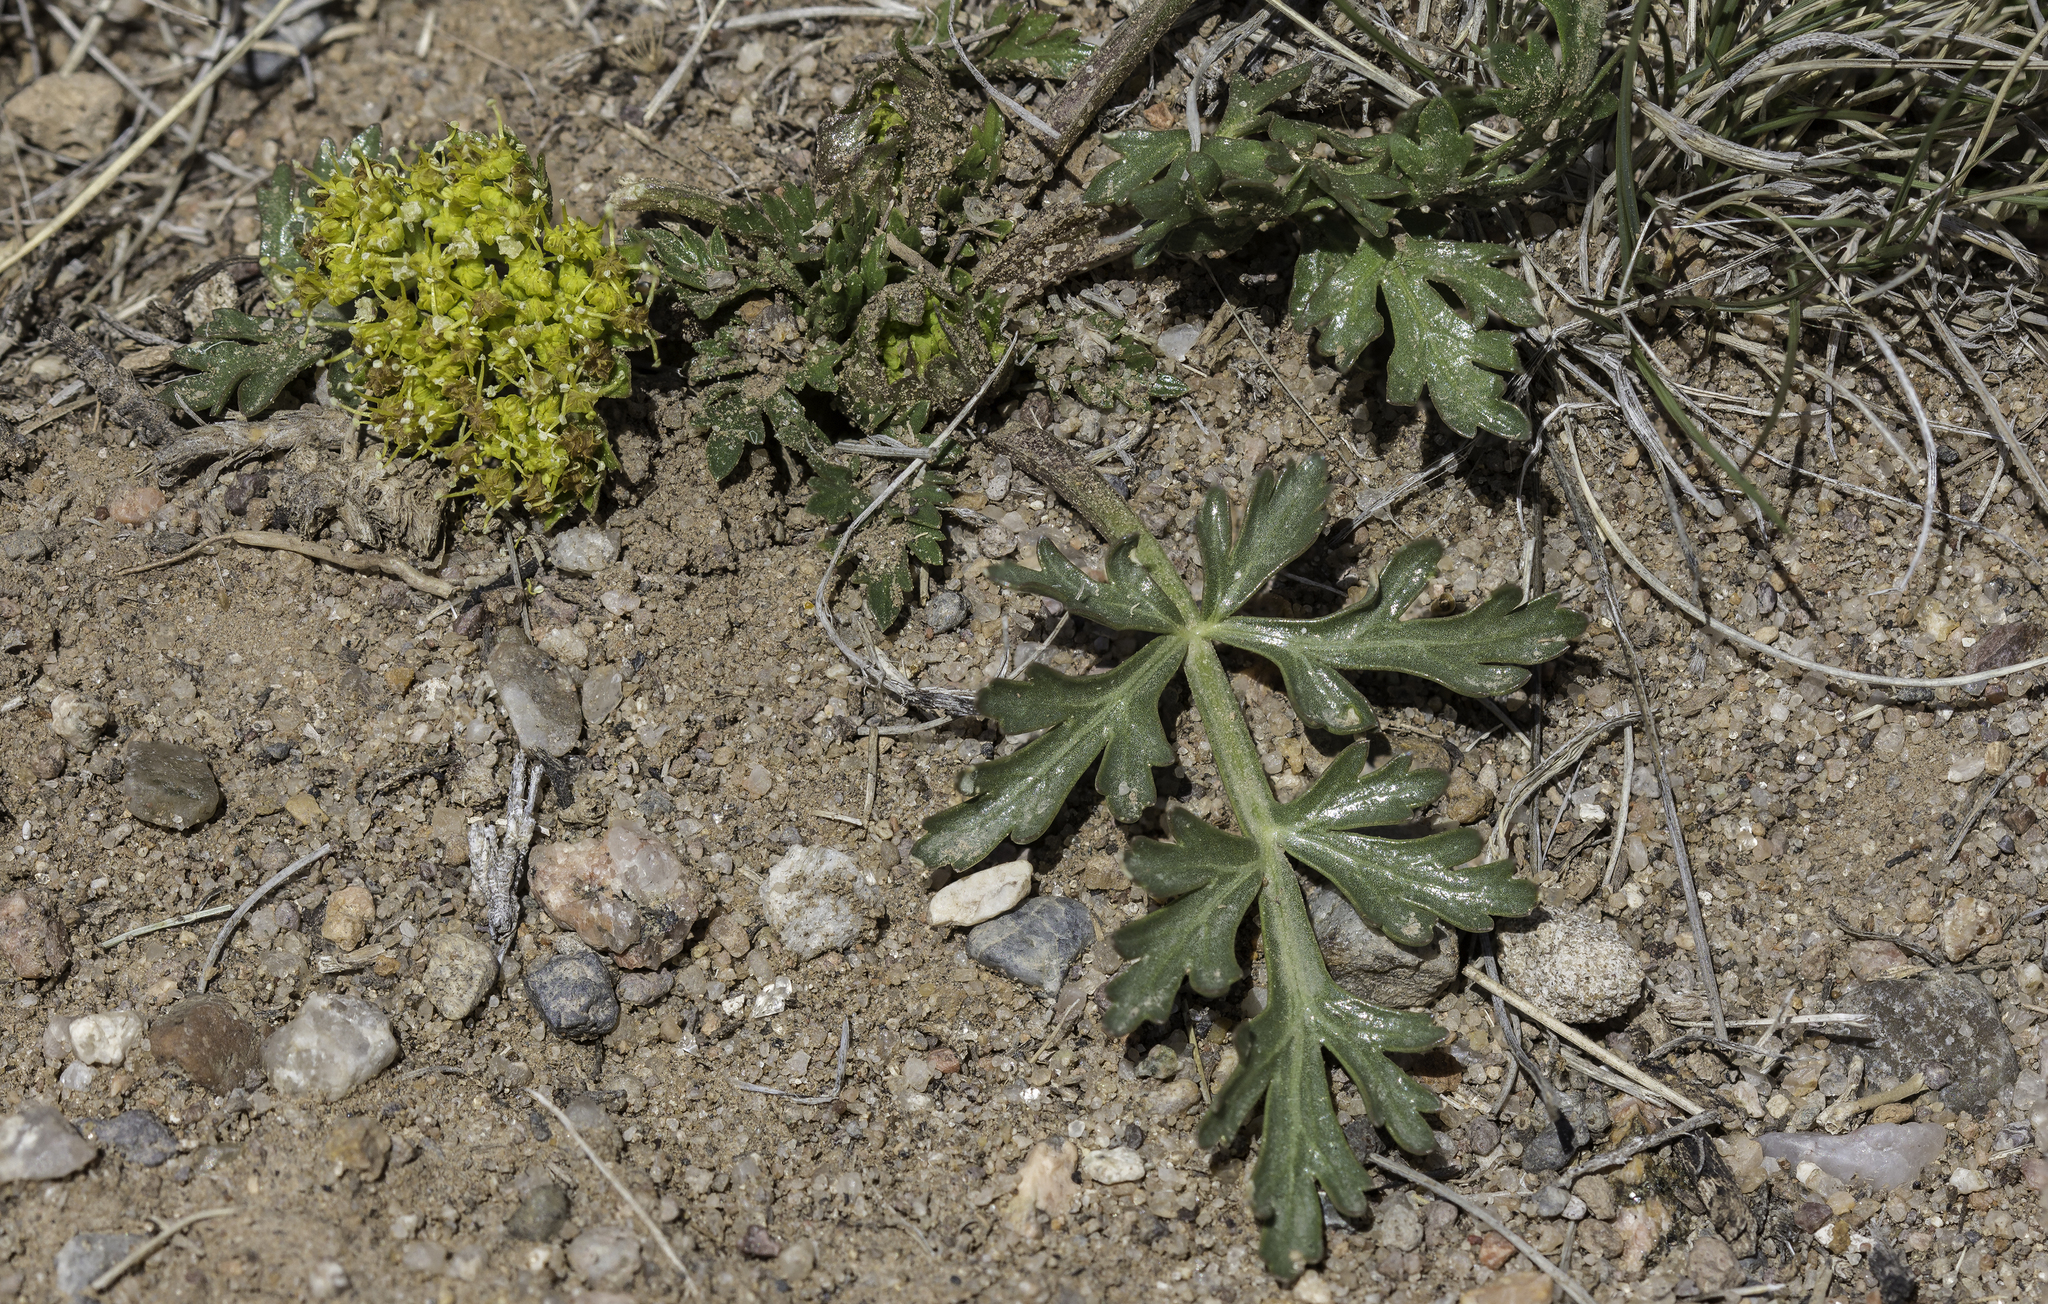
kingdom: Plantae
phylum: Tracheophyta
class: Magnoliopsida
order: Apiales
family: Apiaceae
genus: Cymopterus
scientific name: Cymopterus glomeratus
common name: Plains spring parsley
